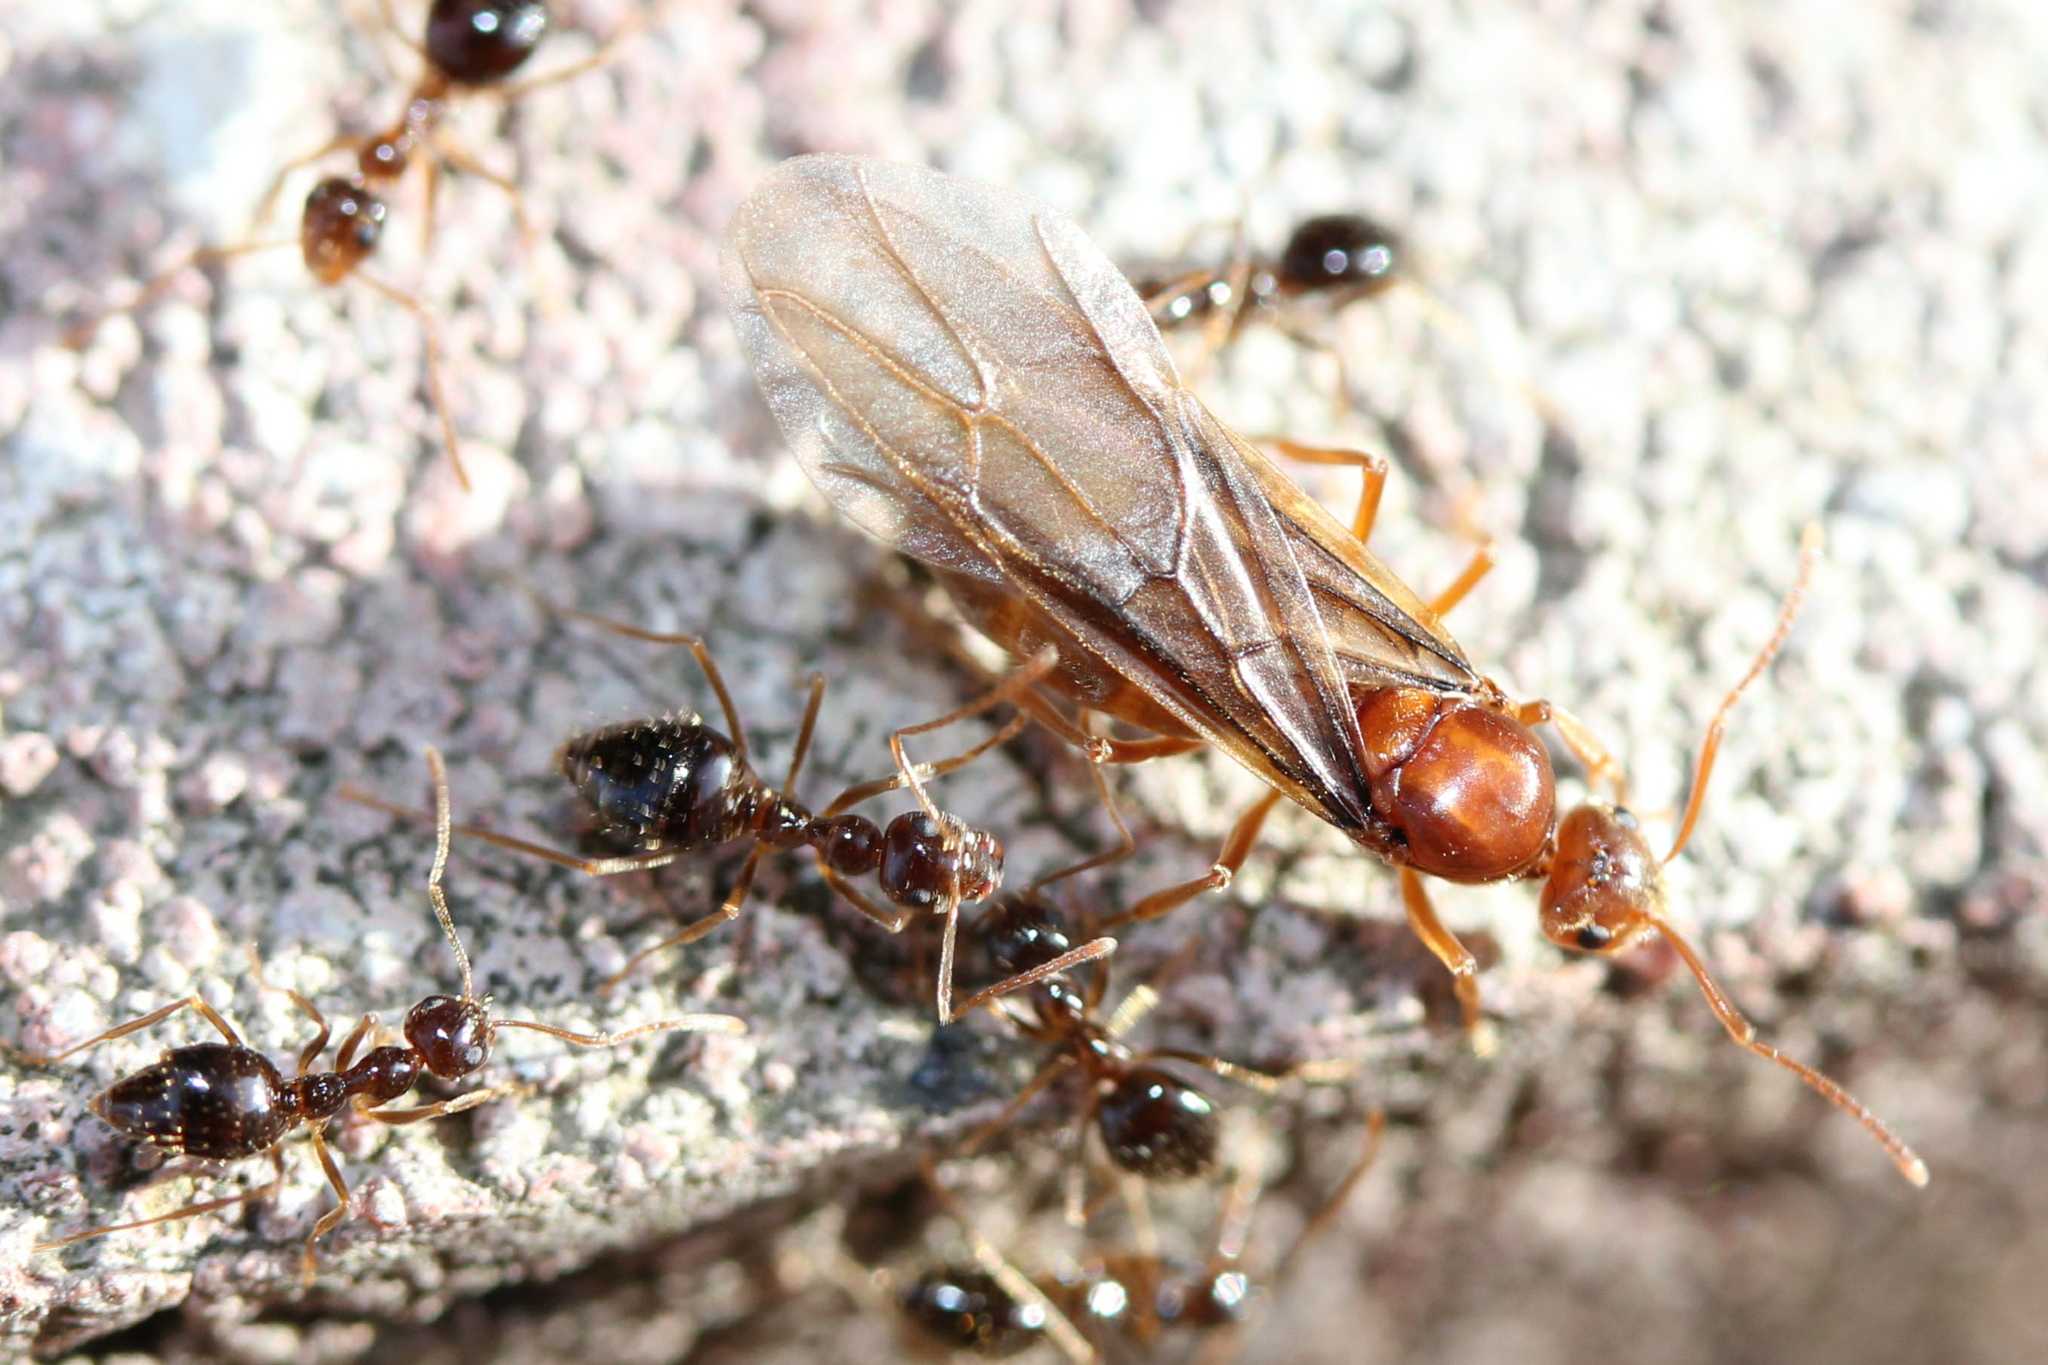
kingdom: Animalia
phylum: Arthropoda
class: Insecta
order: Hymenoptera
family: Formicidae
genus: Prenolepis
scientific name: Prenolepis imparis
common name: Small honey ant
